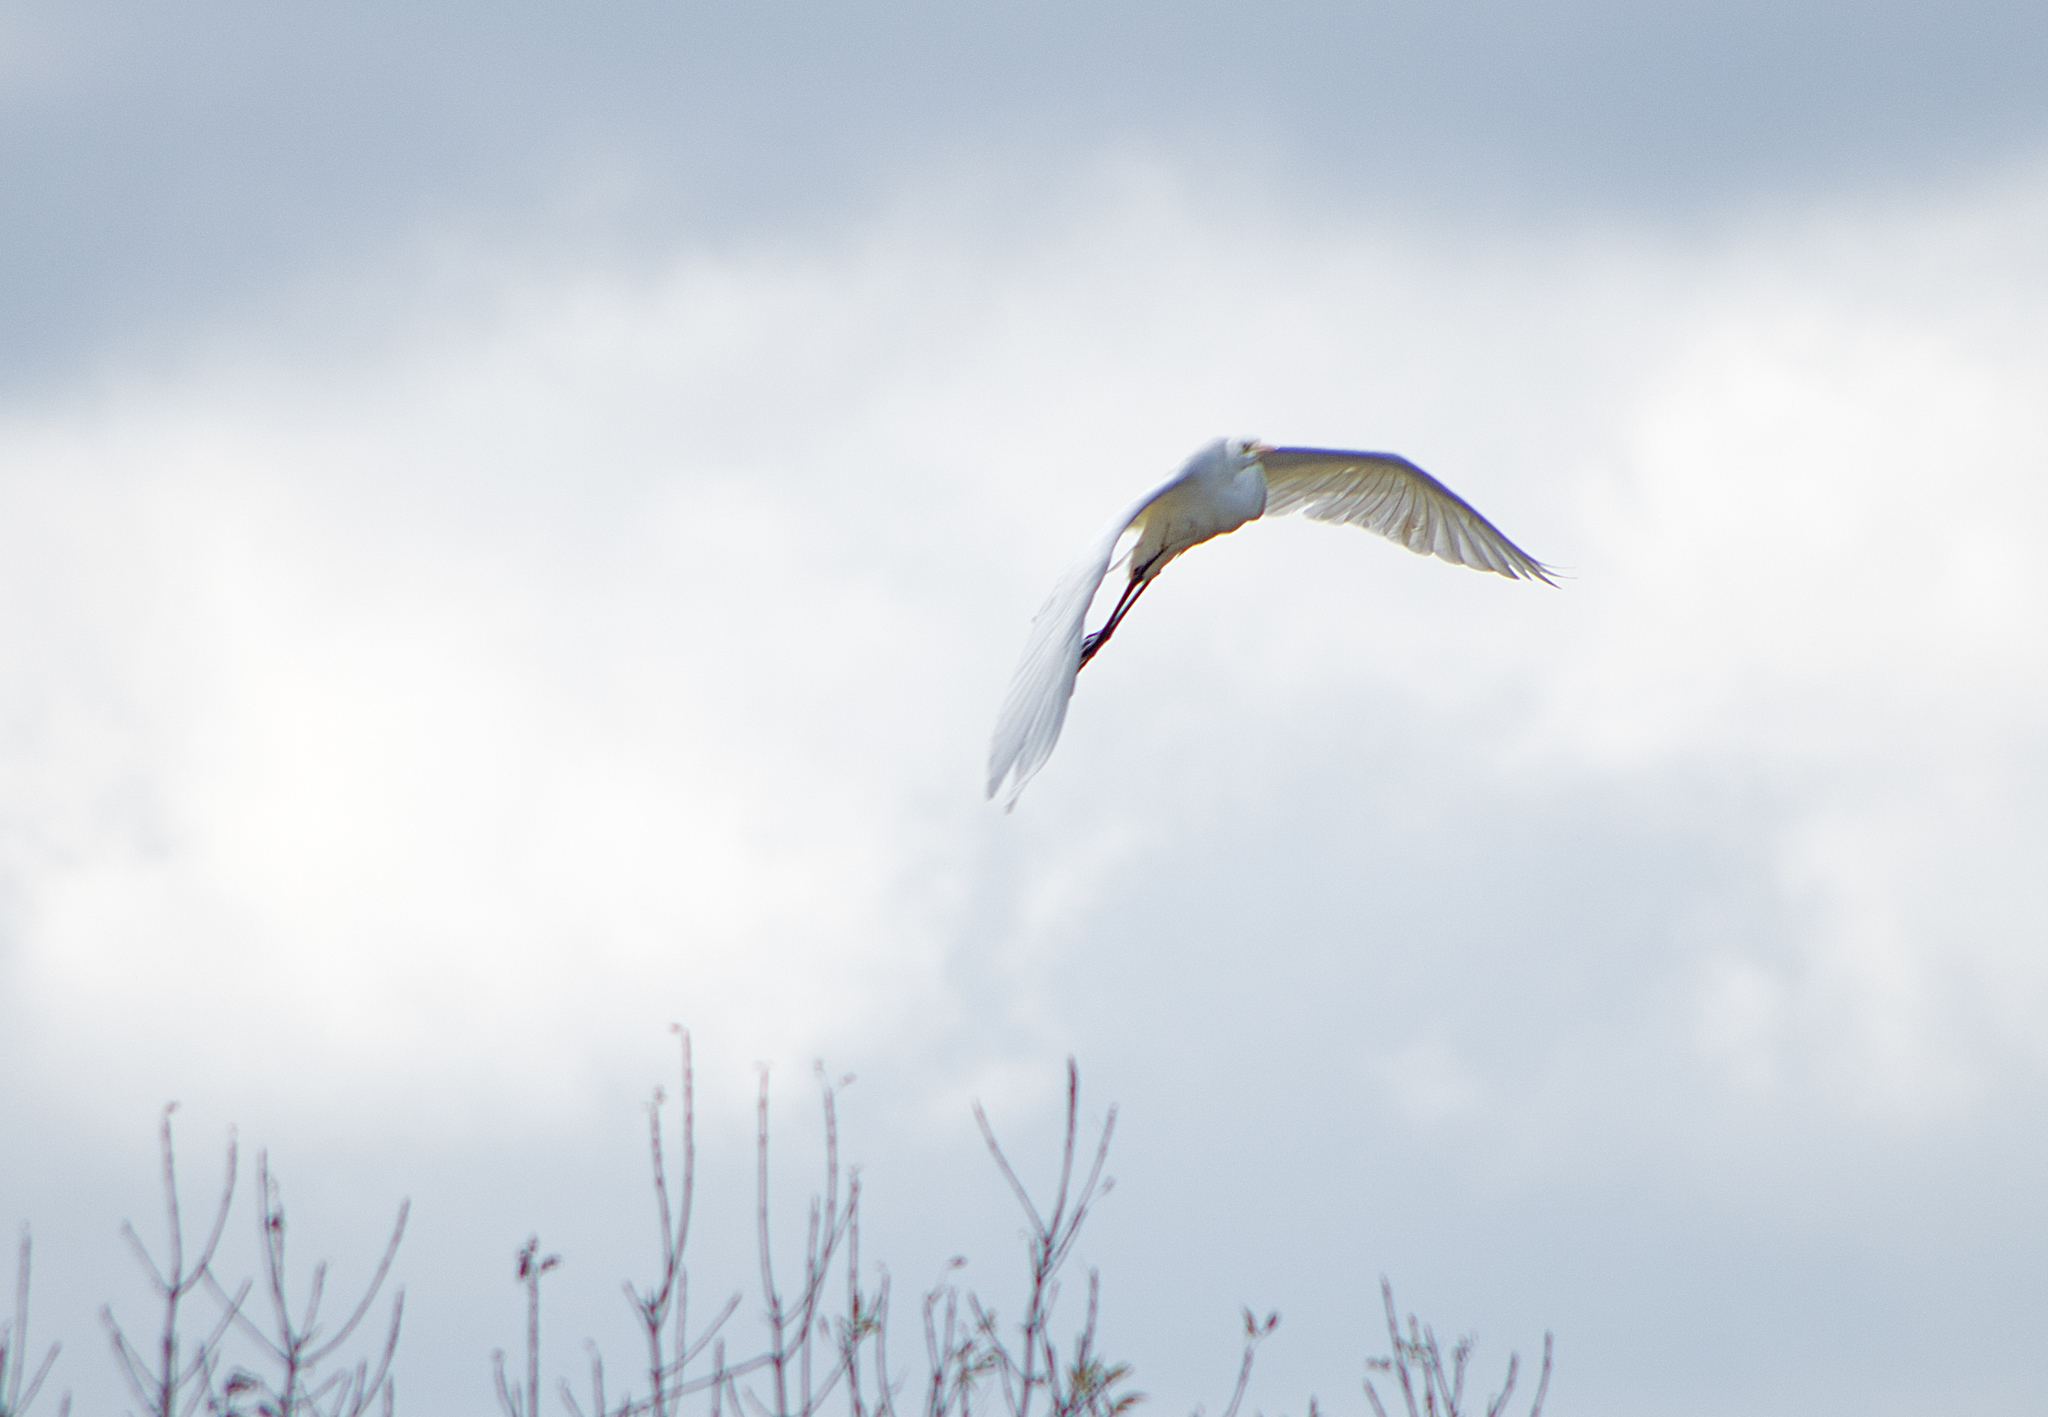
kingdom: Animalia
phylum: Chordata
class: Aves
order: Pelecaniformes
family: Ardeidae
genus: Ardea
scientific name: Ardea alba
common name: Great egret
